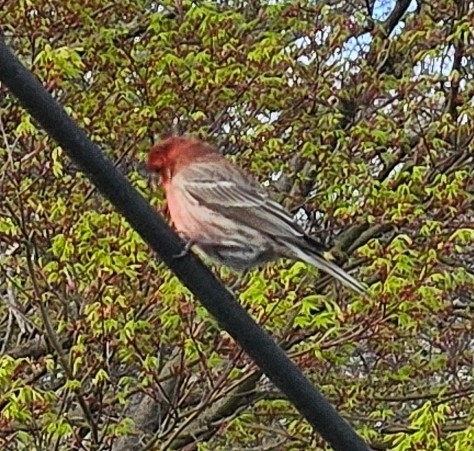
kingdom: Animalia
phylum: Chordata
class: Aves
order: Passeriformes
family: Fringillidae
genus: Haemorhous
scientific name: Haemorhous mexicanus
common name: House finch
